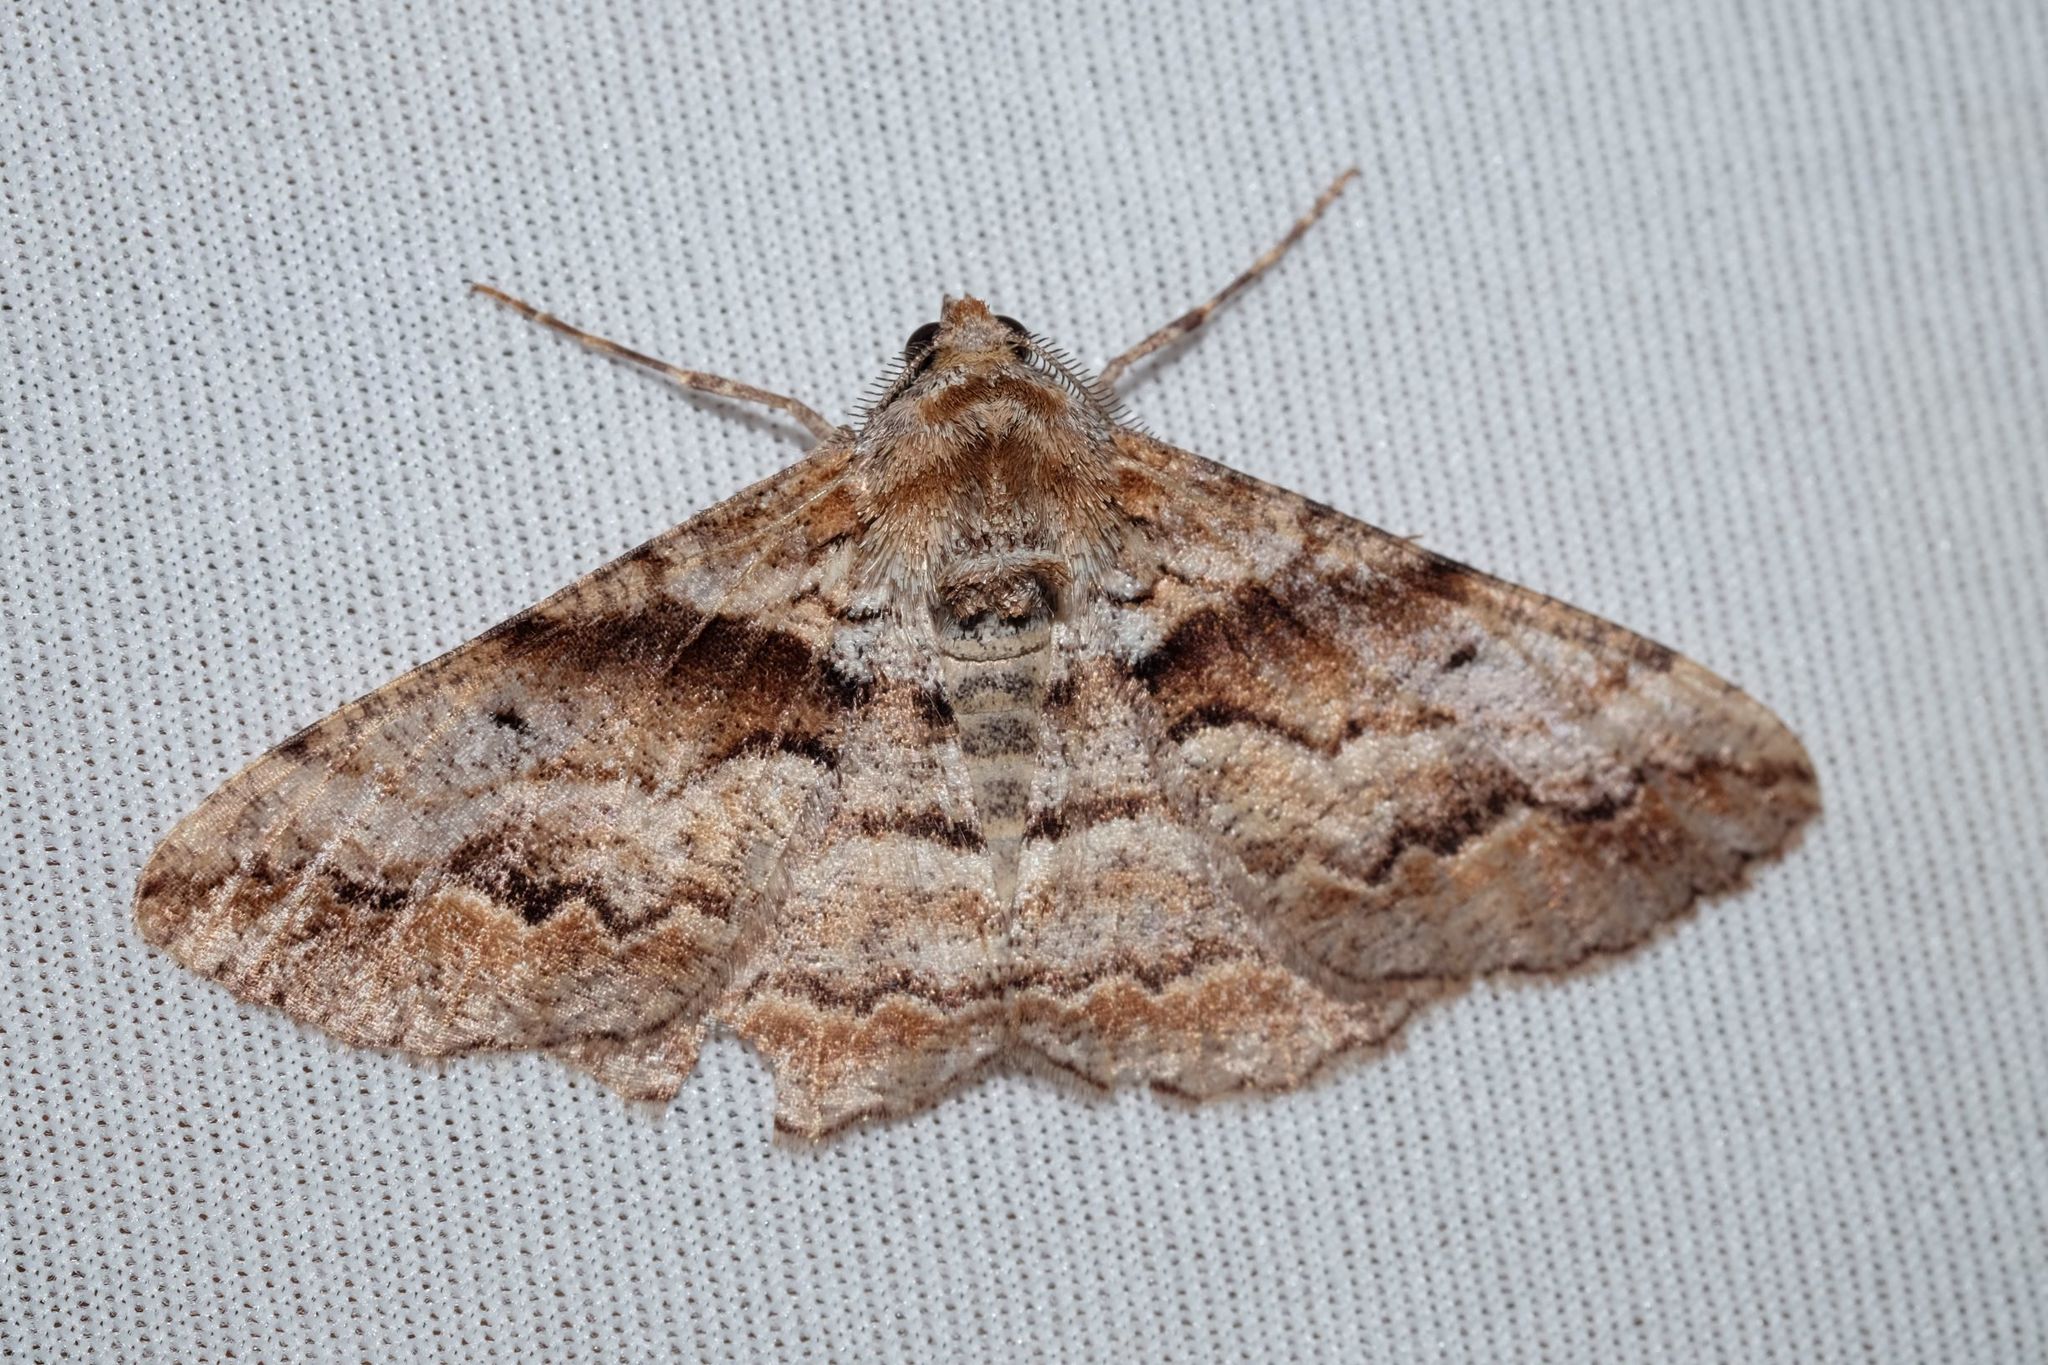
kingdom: Animalia
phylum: Arthropoda
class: Insecta
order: Lepidoptera
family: Geometridae
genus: Gastrinodes
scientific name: Gastrinodes bitaeniaria
